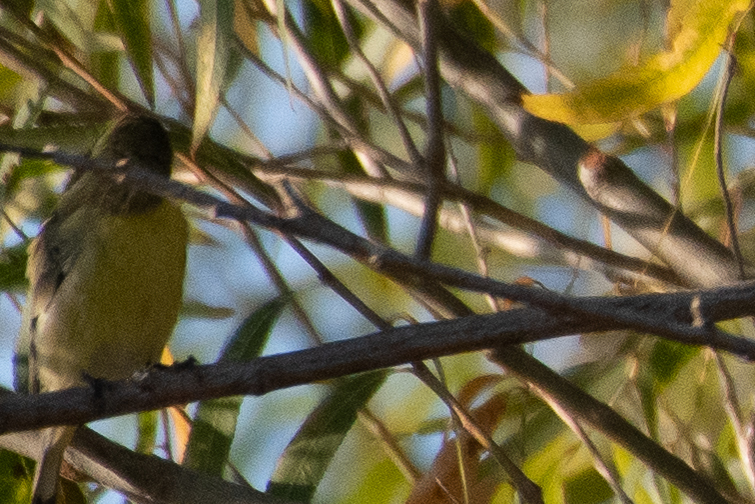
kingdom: Animalia
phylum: Chordata
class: Aves
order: Passeriformes
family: Fringillidae
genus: Spinus
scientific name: Spinus psaltria
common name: Lesser goldfinch
